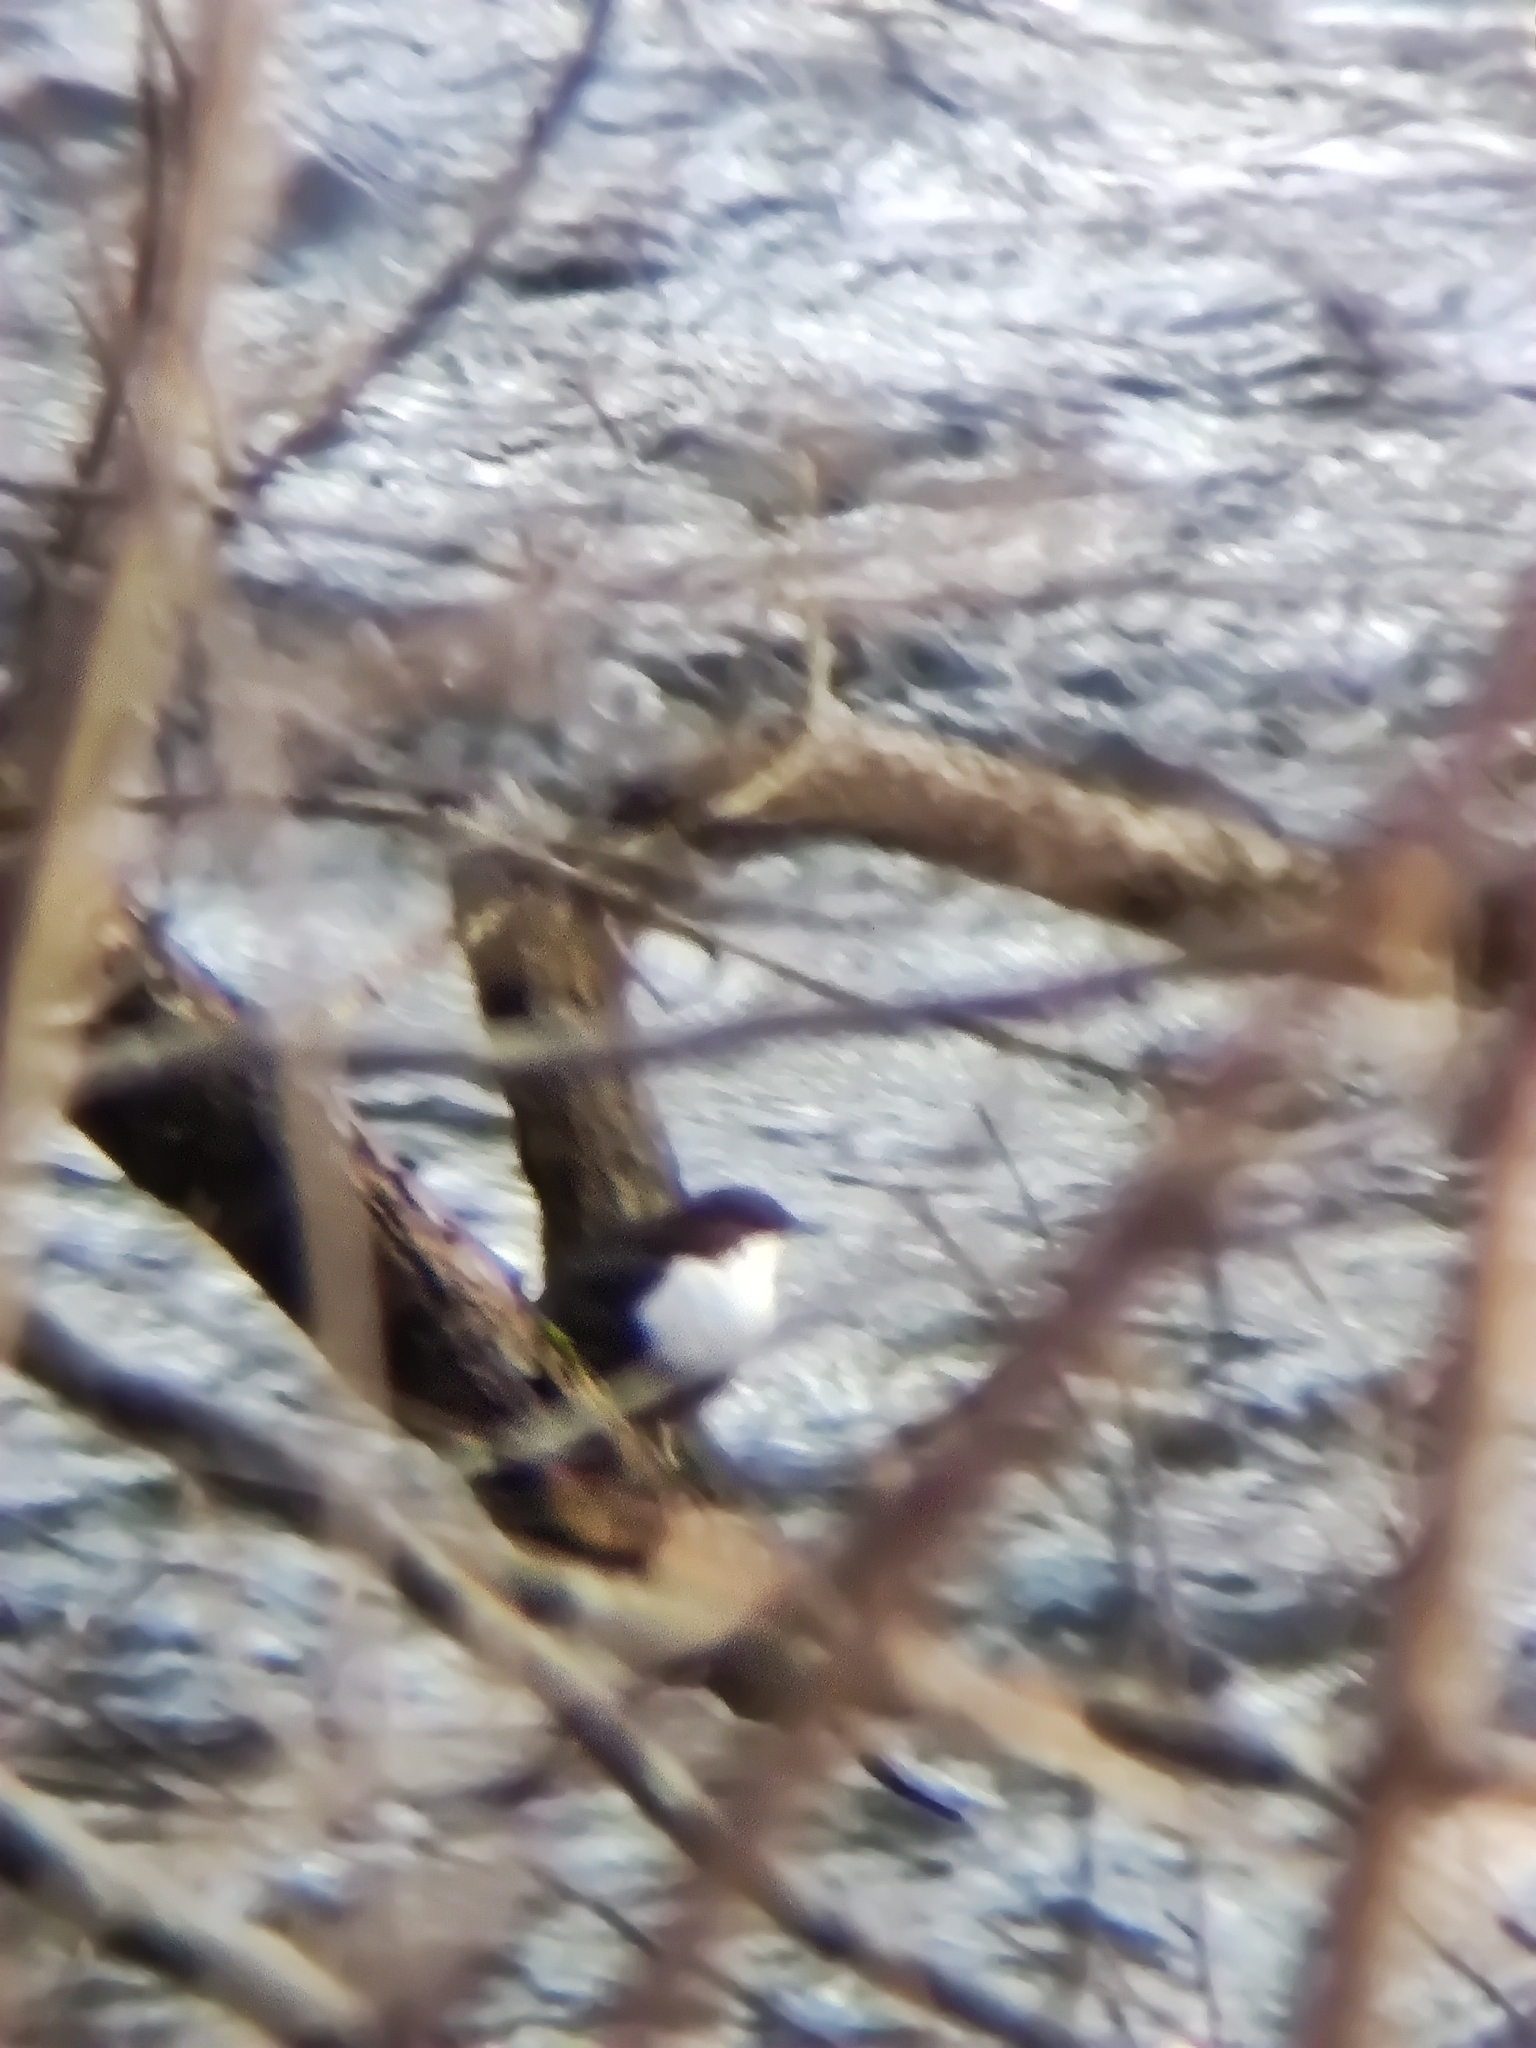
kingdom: Animalia
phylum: Chordata
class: Aves
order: Passeriformes
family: Cinclidae
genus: Cinclus
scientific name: Cinclus cinclus
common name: White-throated dipper
